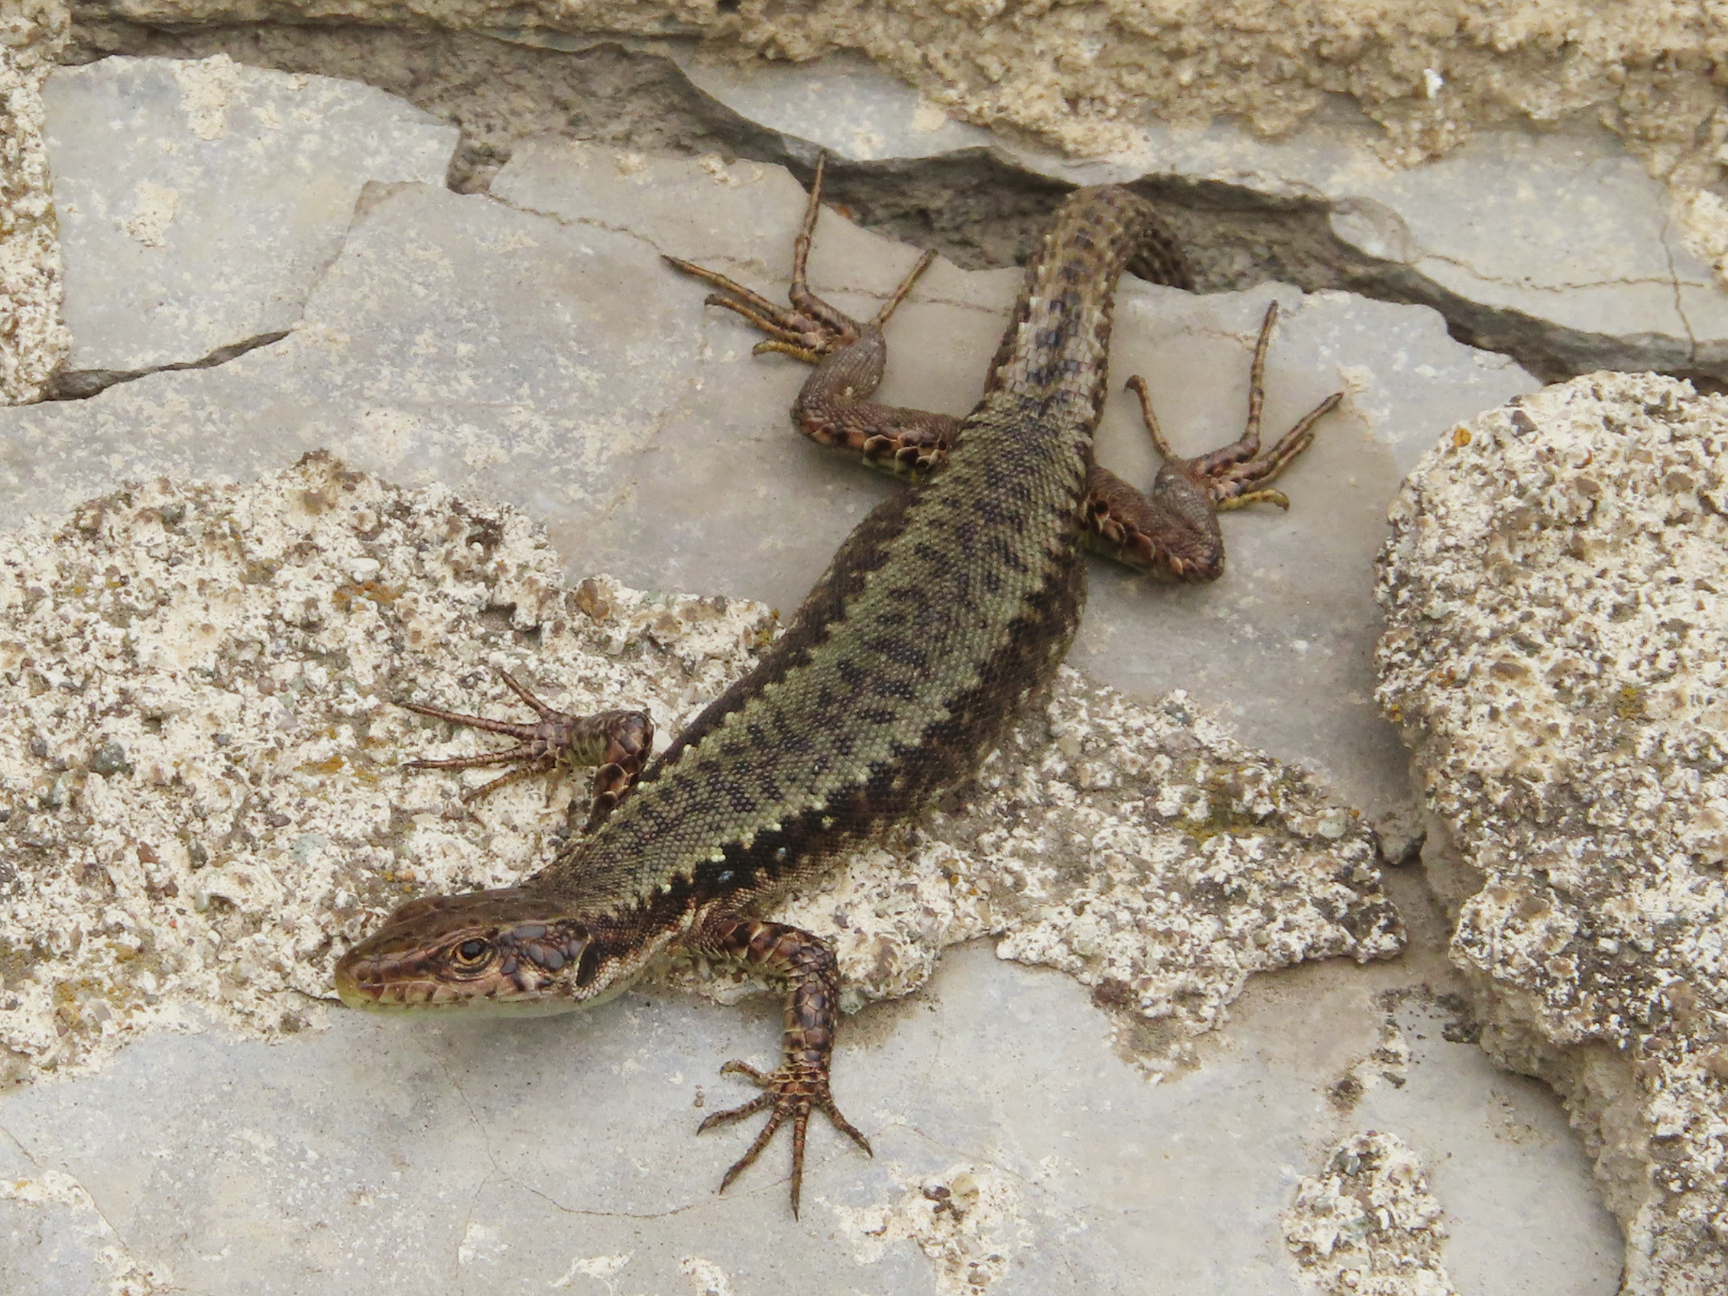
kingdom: Animalia
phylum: Chordata
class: Squamata
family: Lacertidae
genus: Darevskia
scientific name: Darevskia armeniaca
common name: Armenian lizard
